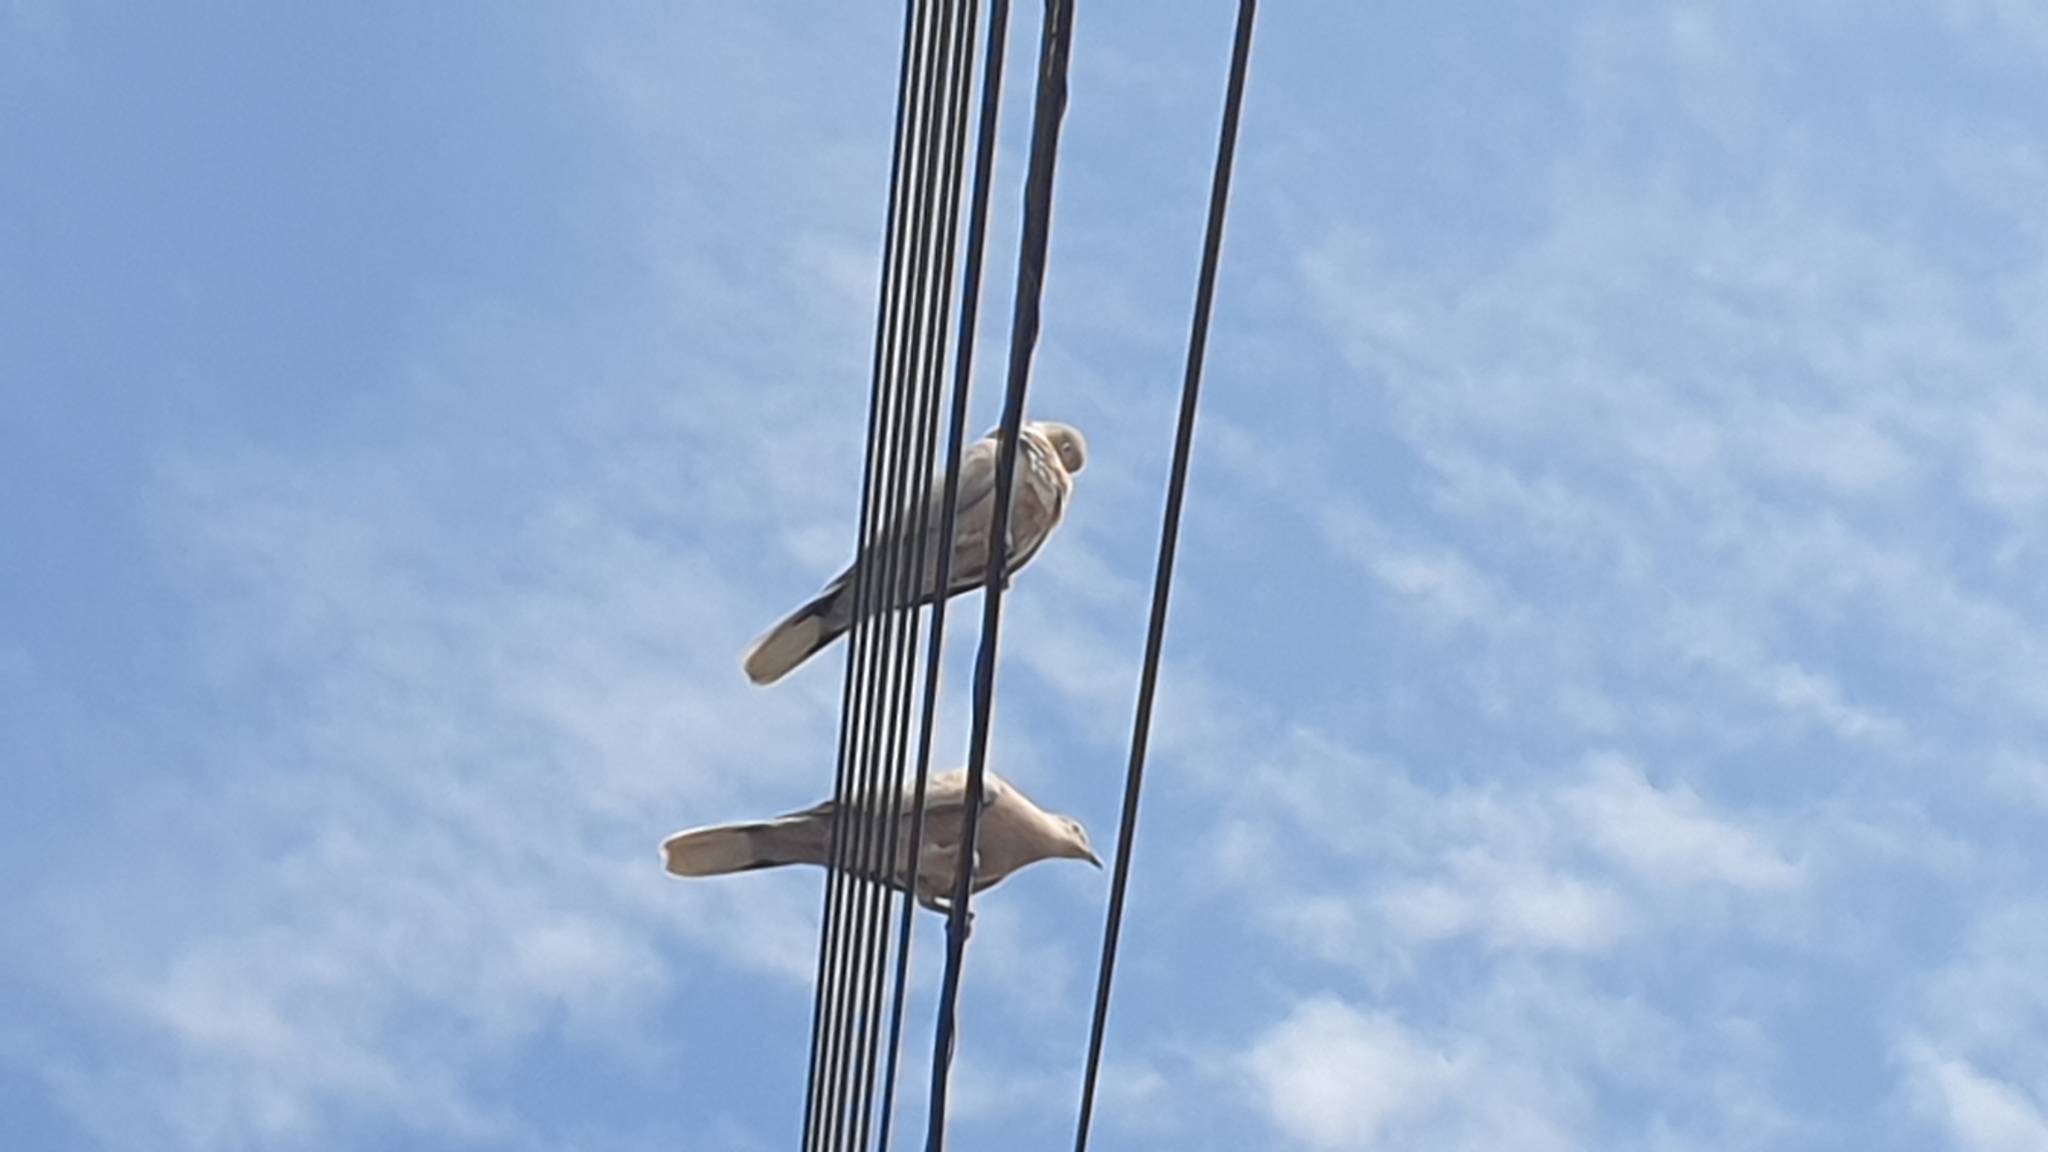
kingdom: Animalia
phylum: Chordata
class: Aves
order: Columbiformes
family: Columbidae
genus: Streptopelia
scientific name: Streptopelia decaocto
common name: Eurasian collared dove
